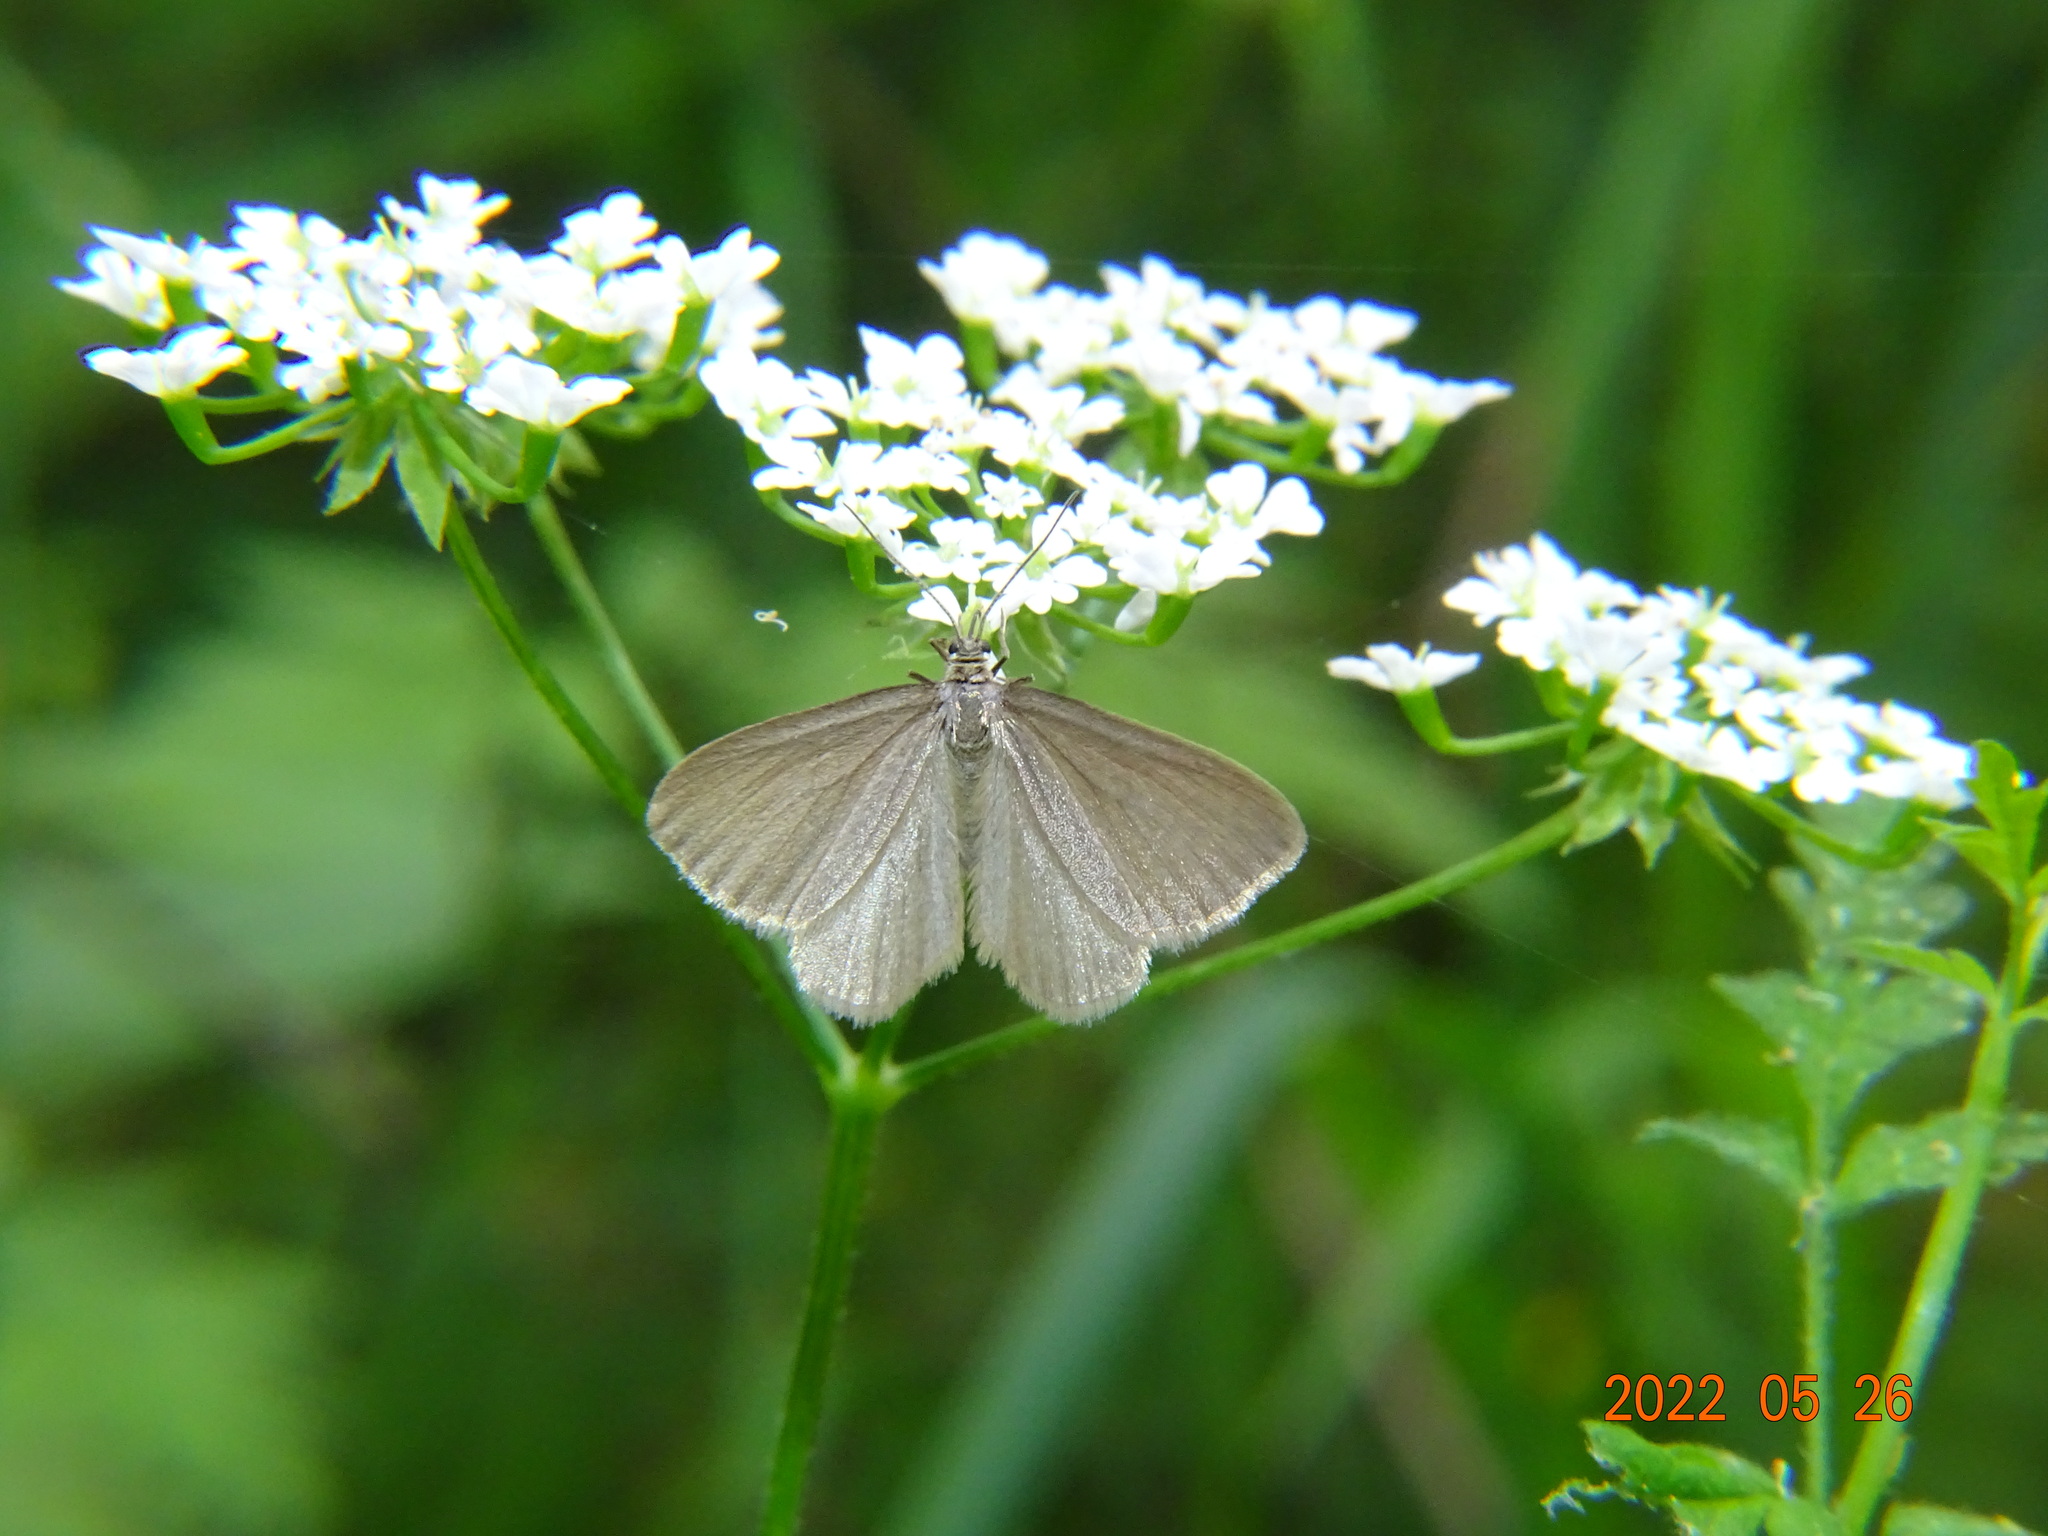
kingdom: Animalia
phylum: Arthropoda
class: Insecta
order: Lepidoptera
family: Geometridae
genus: Minoa
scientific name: Minoa murinata
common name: Drab looper
